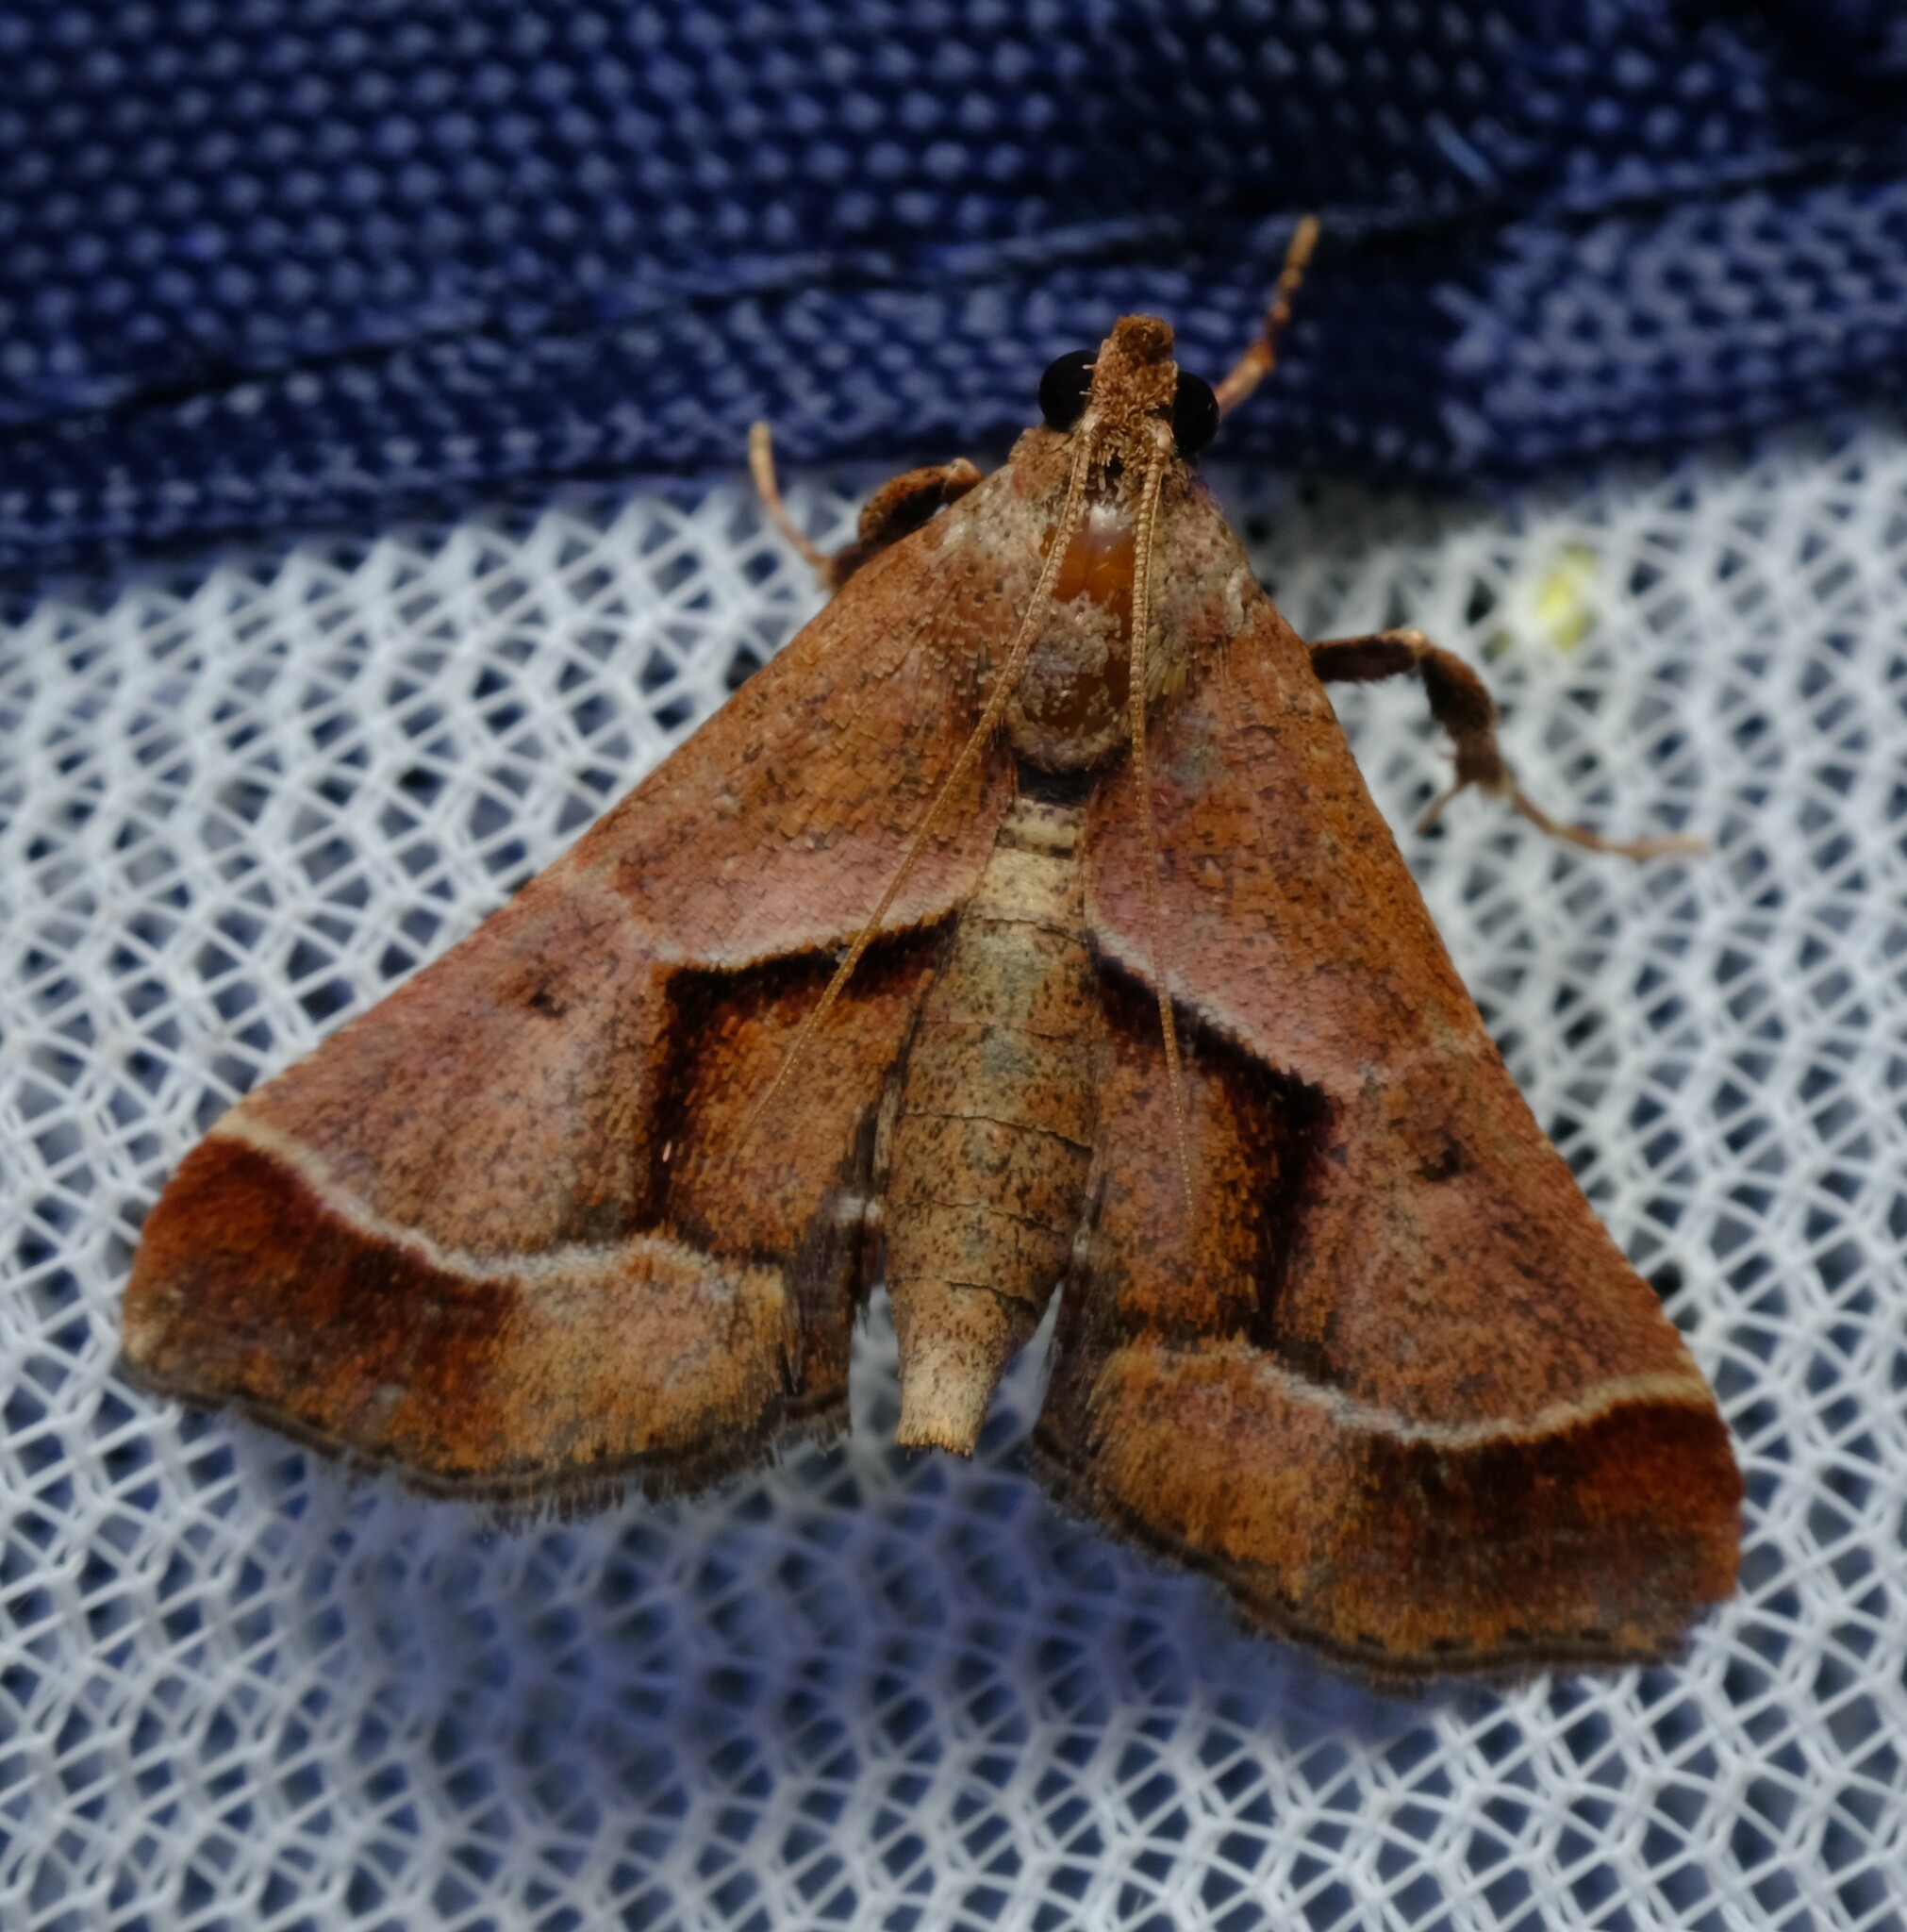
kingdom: Animalia
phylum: Arthropoda
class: Insecta
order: Lepidoptera
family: Pyralidae
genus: Gauna
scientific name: Gauna aegusalis
